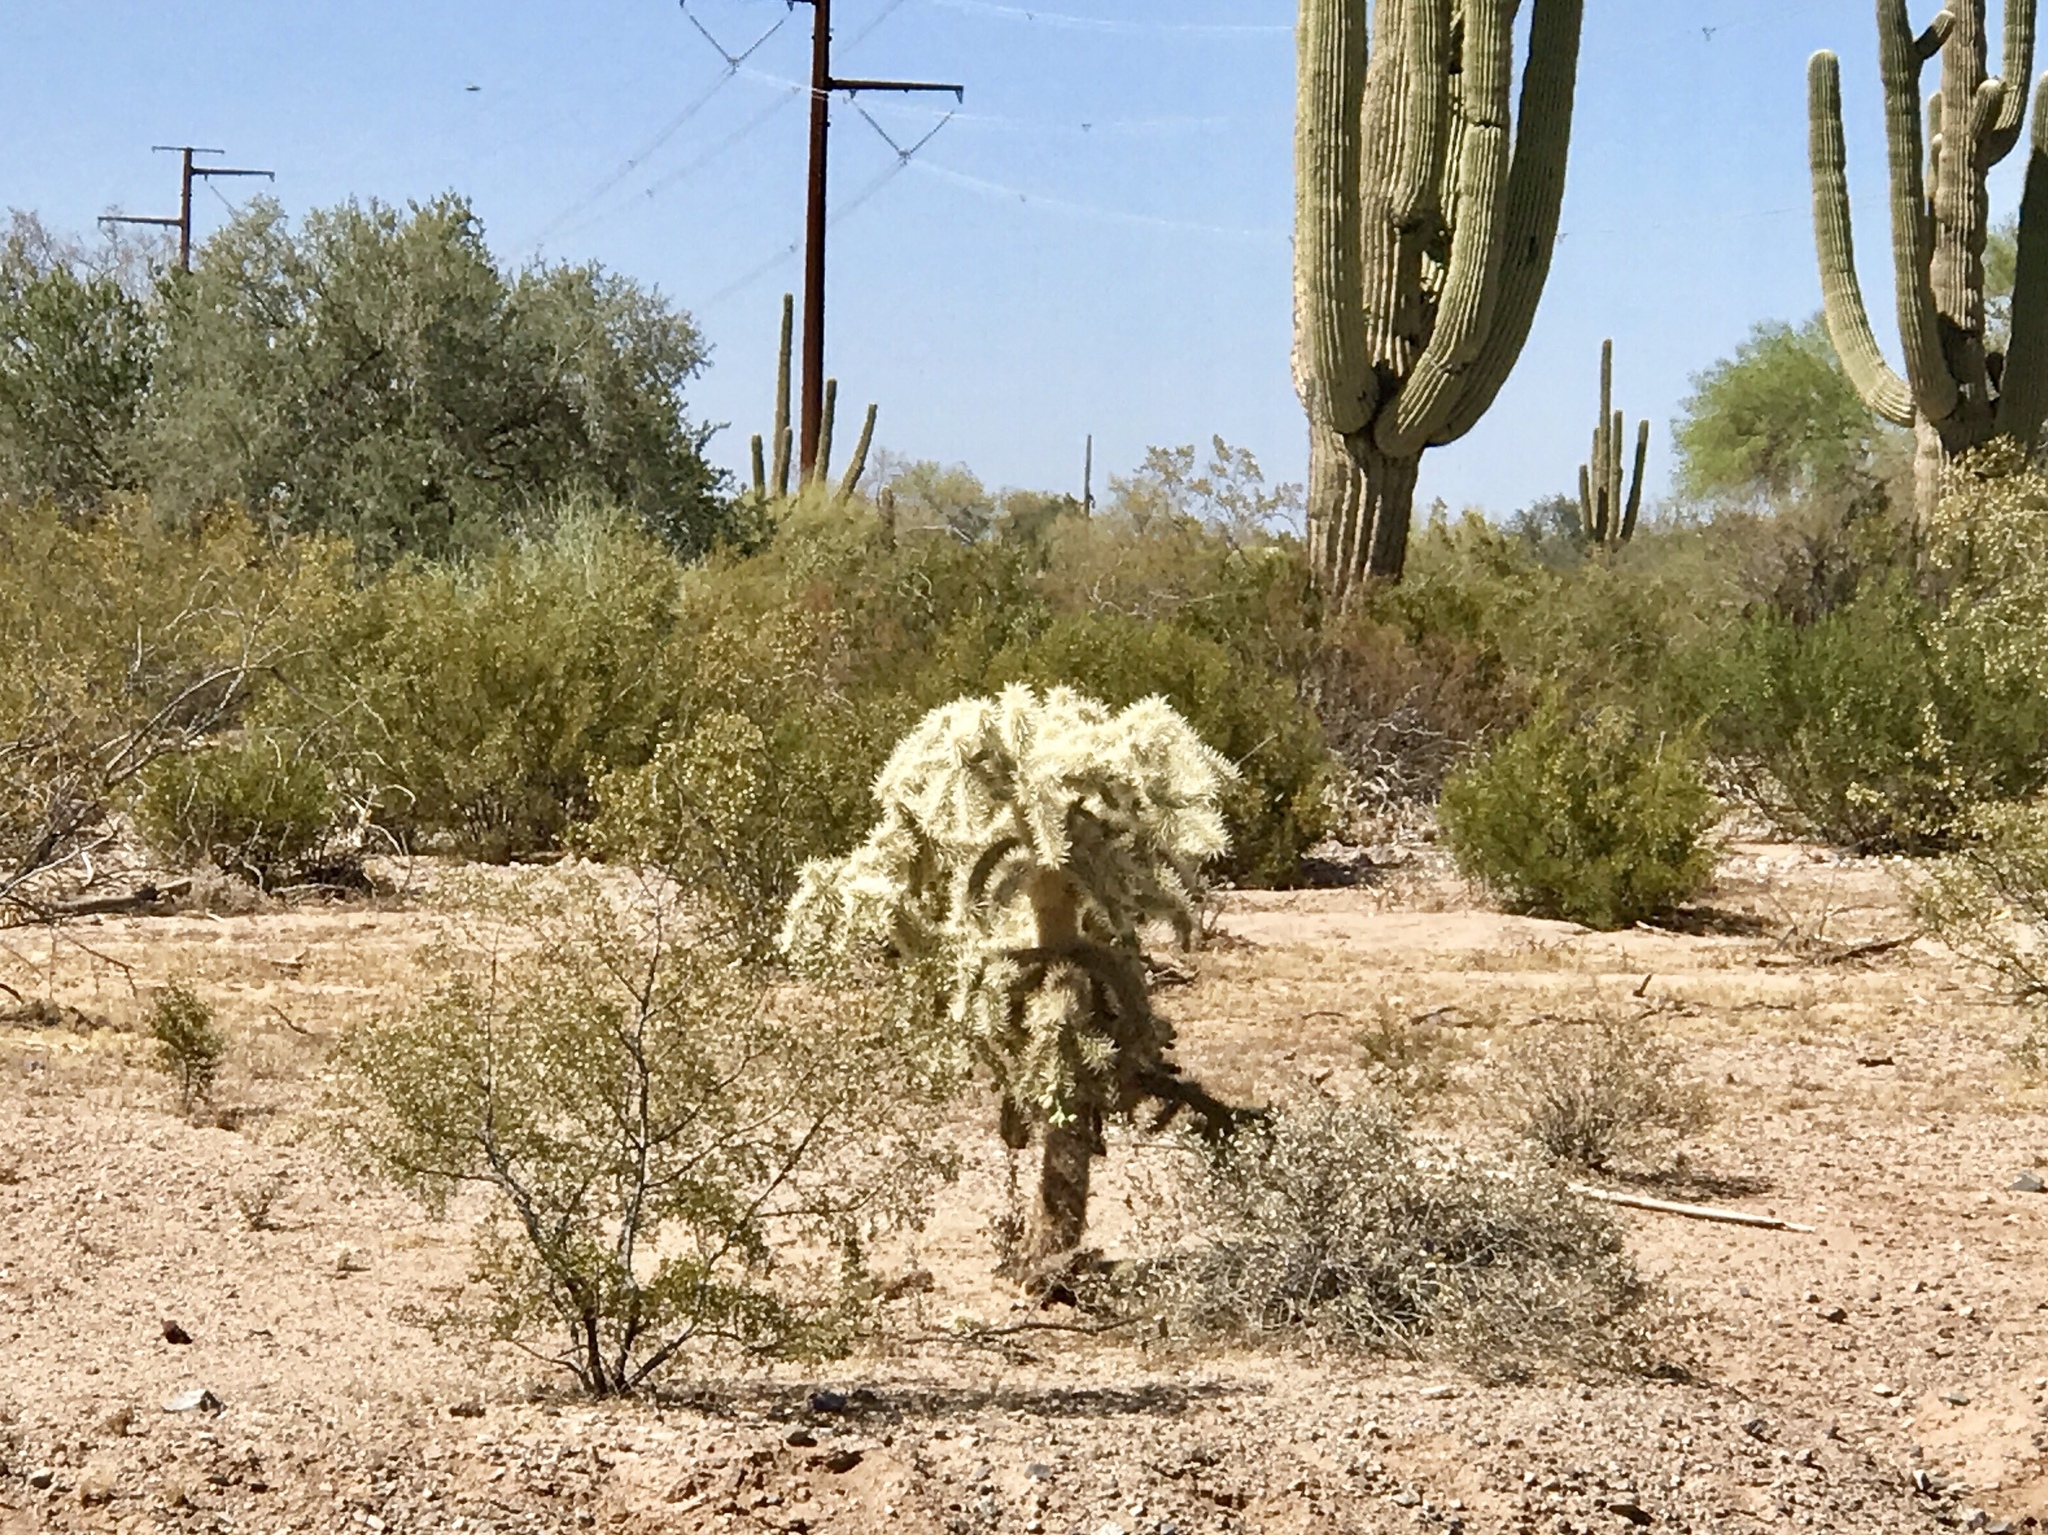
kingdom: Plantae
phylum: Tracheophyta
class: Magnoliopsida
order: Caryophyllales
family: Cactaceae
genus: Cylindropuntia
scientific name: Cylindropuntia fulgida
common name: Jumping cholla
